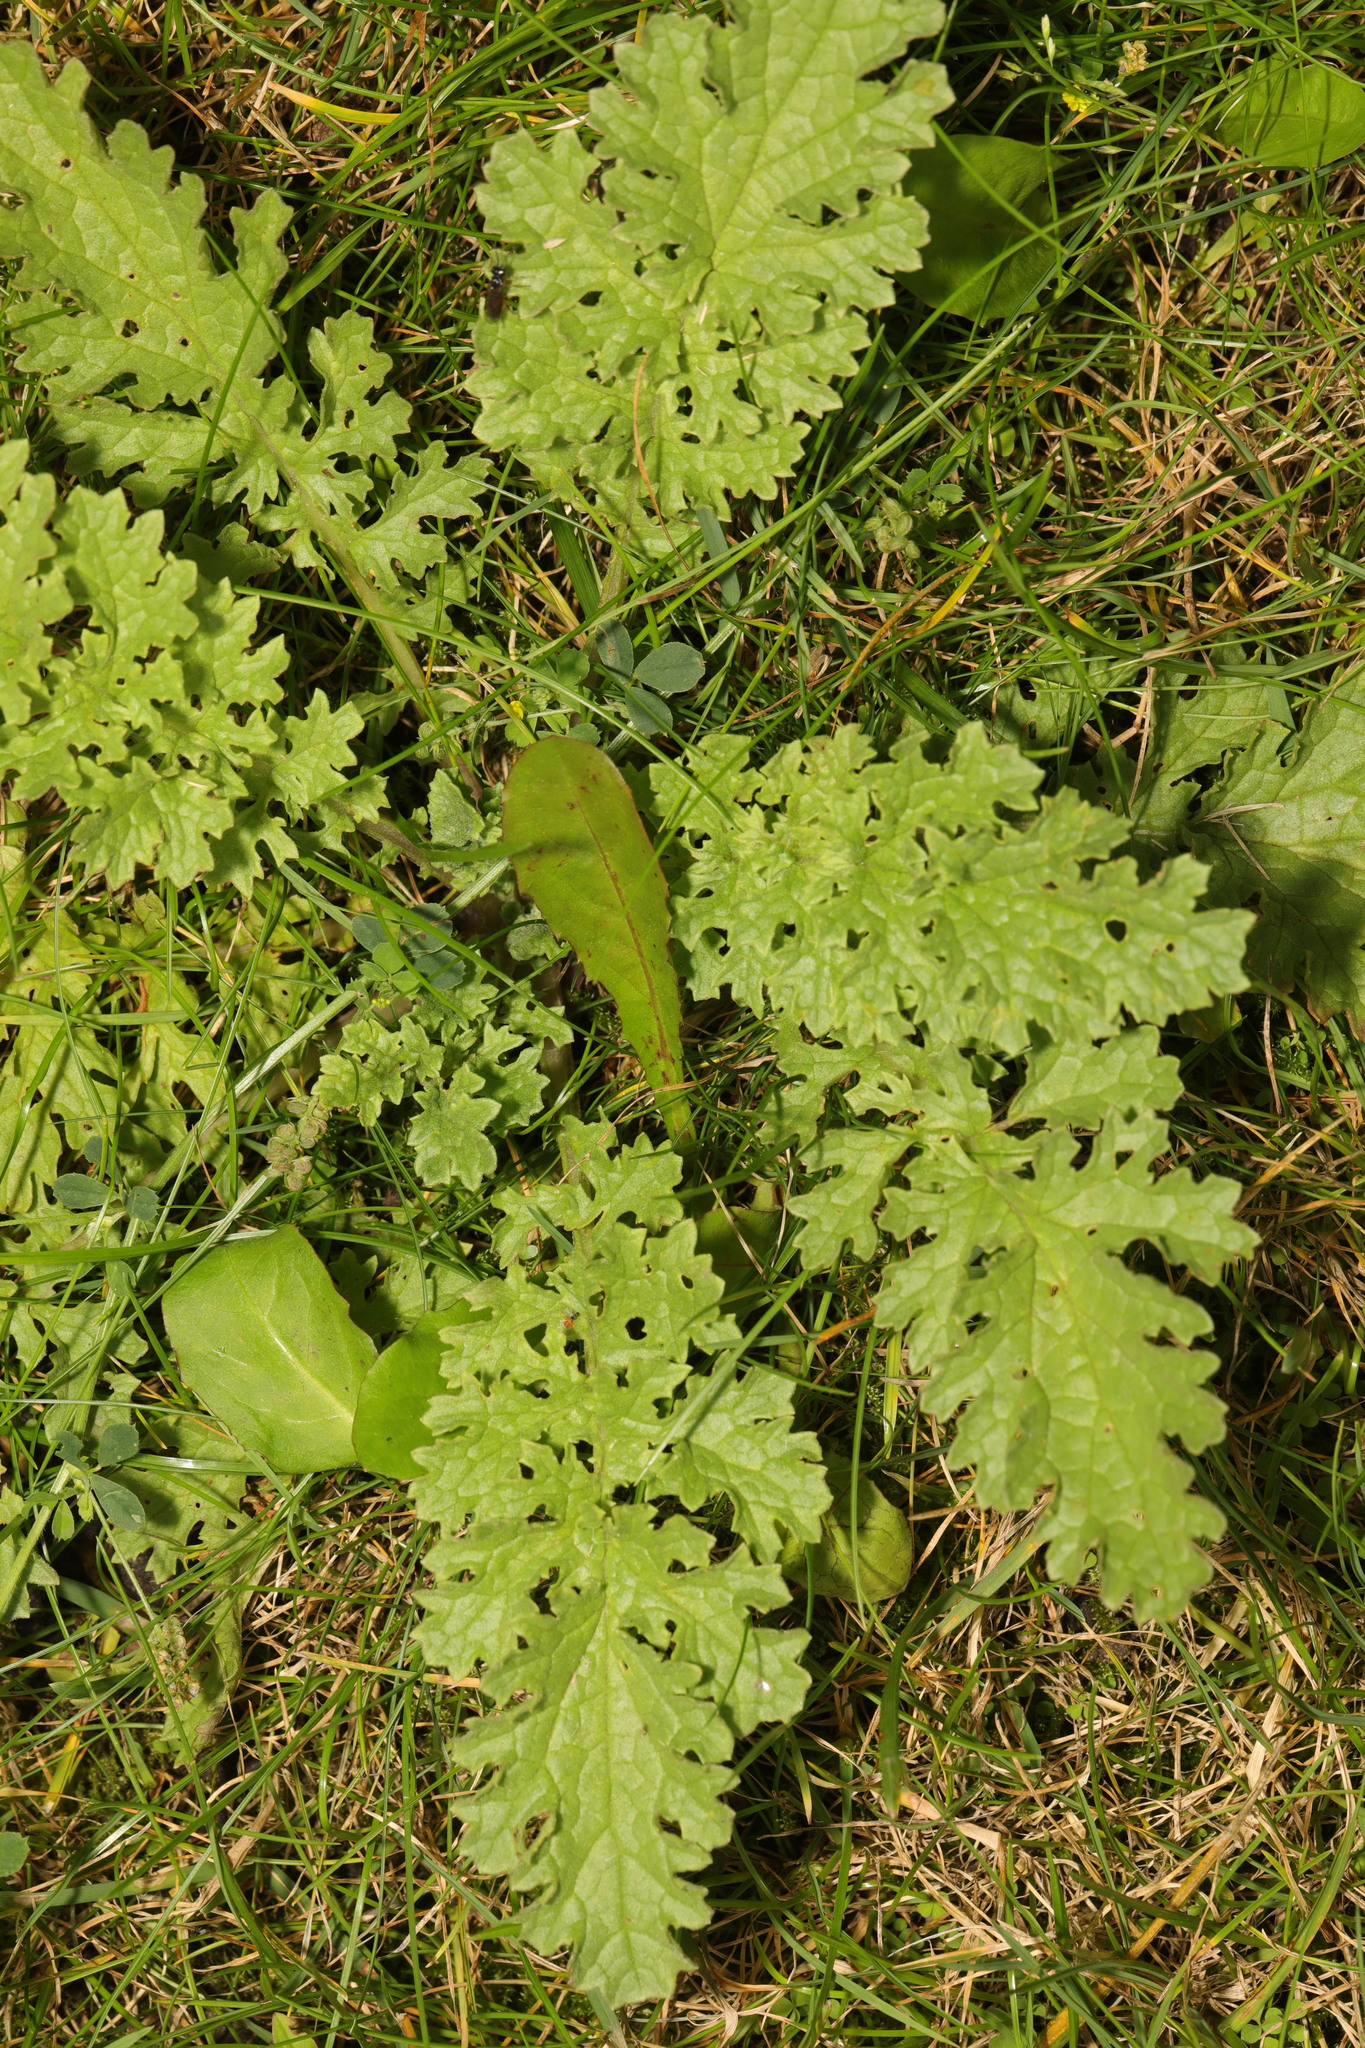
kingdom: Plantae
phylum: Tracheophyta
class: Magnoliopsida
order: Asterales
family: Asteraceae
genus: Jacobaea
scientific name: Jacobaea vulgaris
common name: Stinking willie
